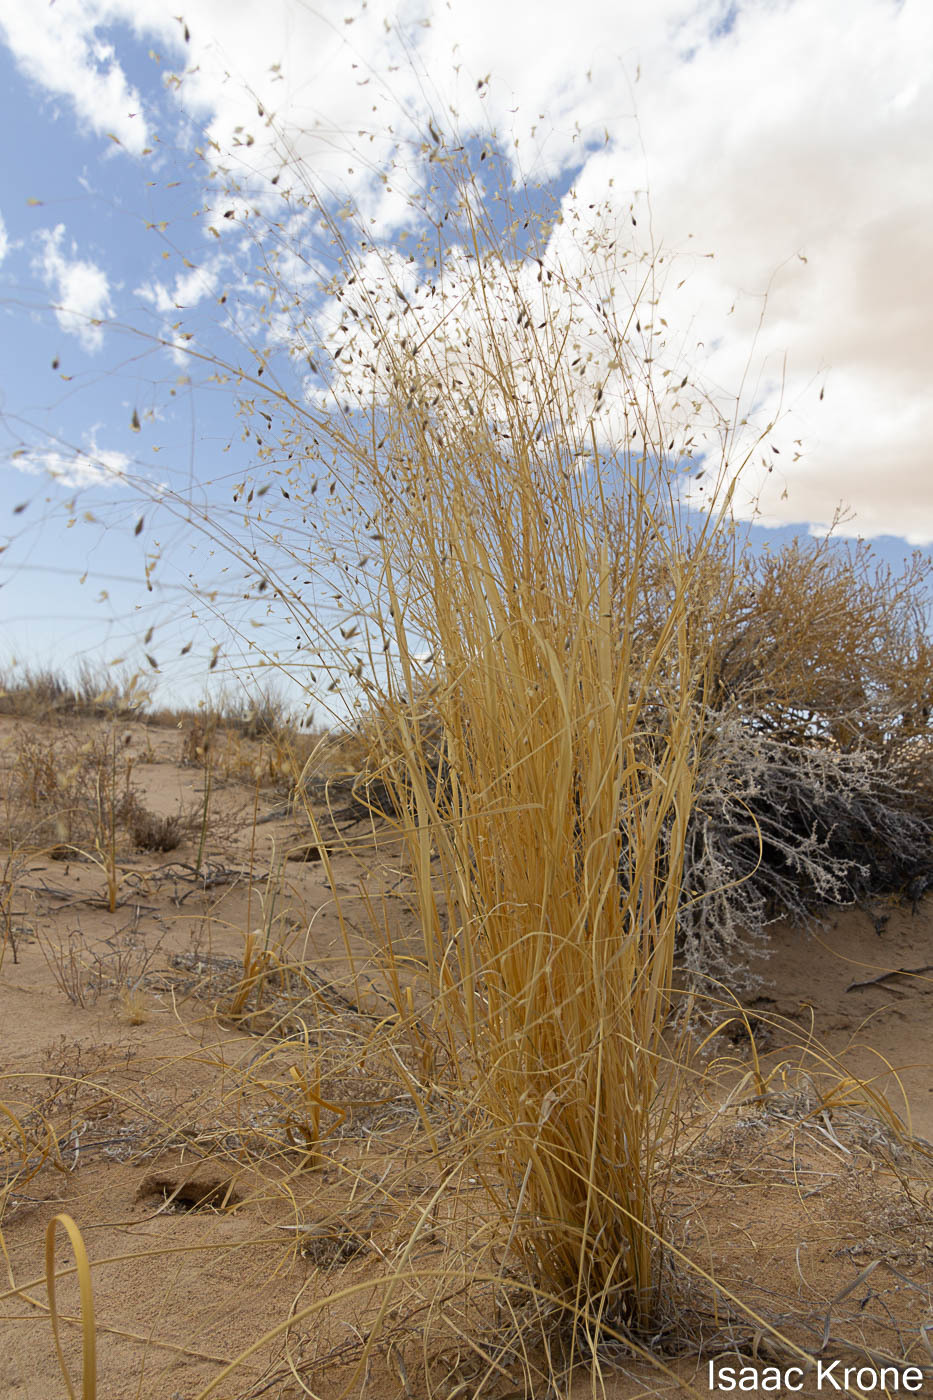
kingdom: Plantae
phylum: Tracheophyta
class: Liliopsida
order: Poales
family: Poaceae
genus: Eriocoma
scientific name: Eriocoma hymenoides
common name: Indian mountain ricegrass
